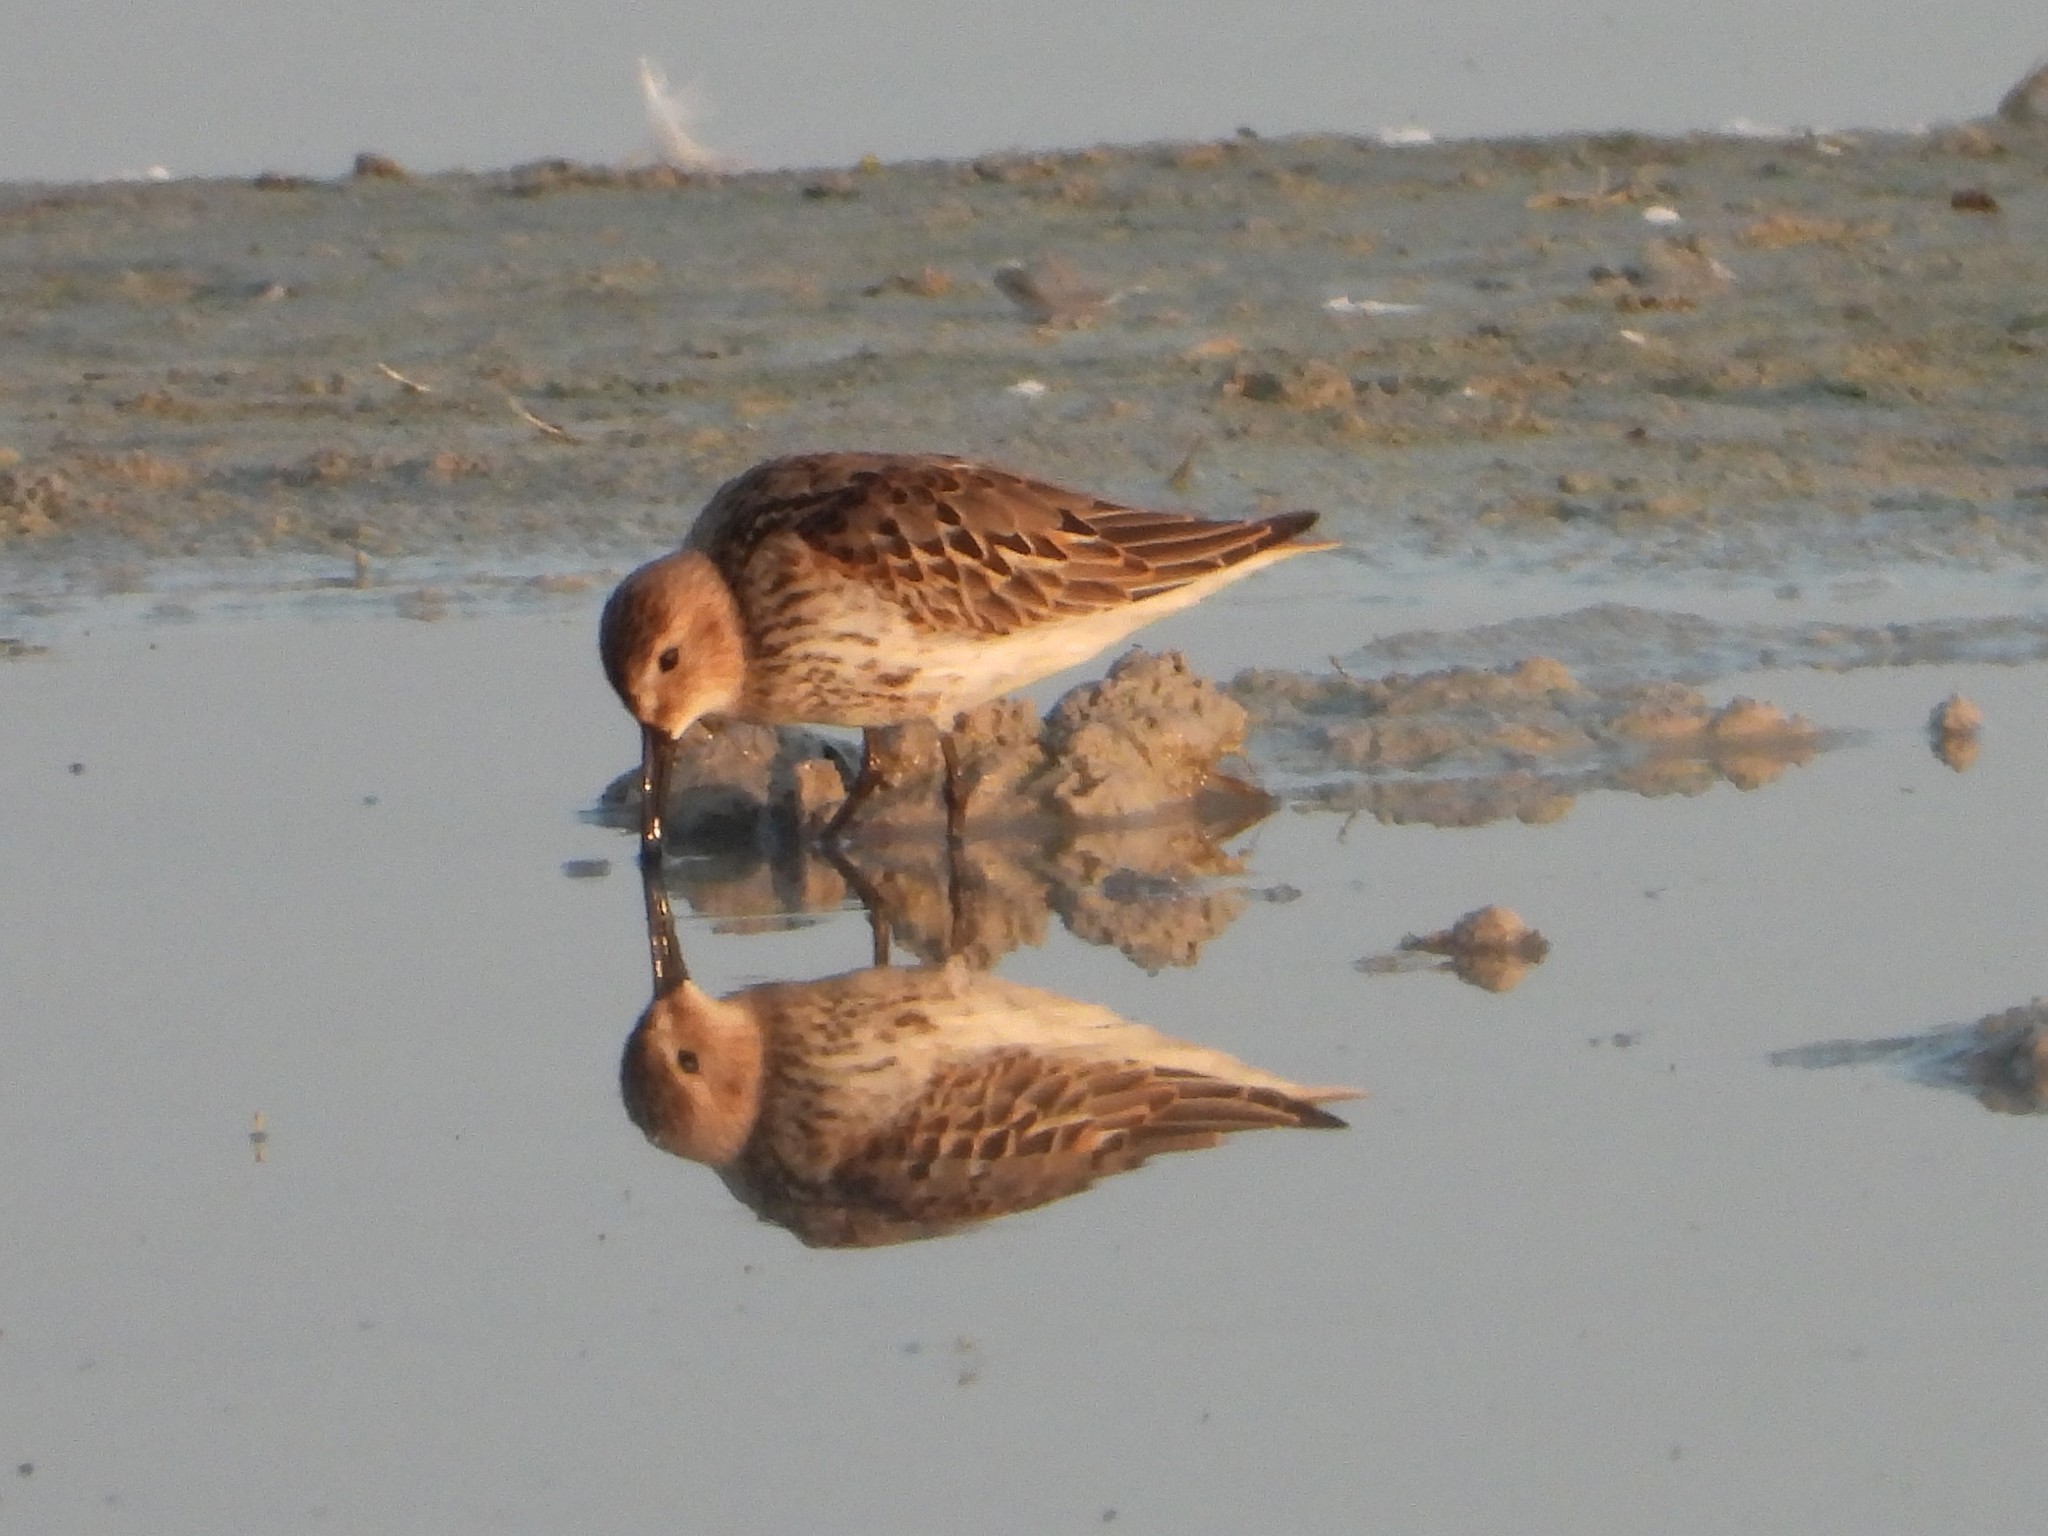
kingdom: Animalia
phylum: Chordata
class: Aves
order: Charadriiformes
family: Scolopacidae
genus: Calidris
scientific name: Calidris alpina
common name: Dunlin
